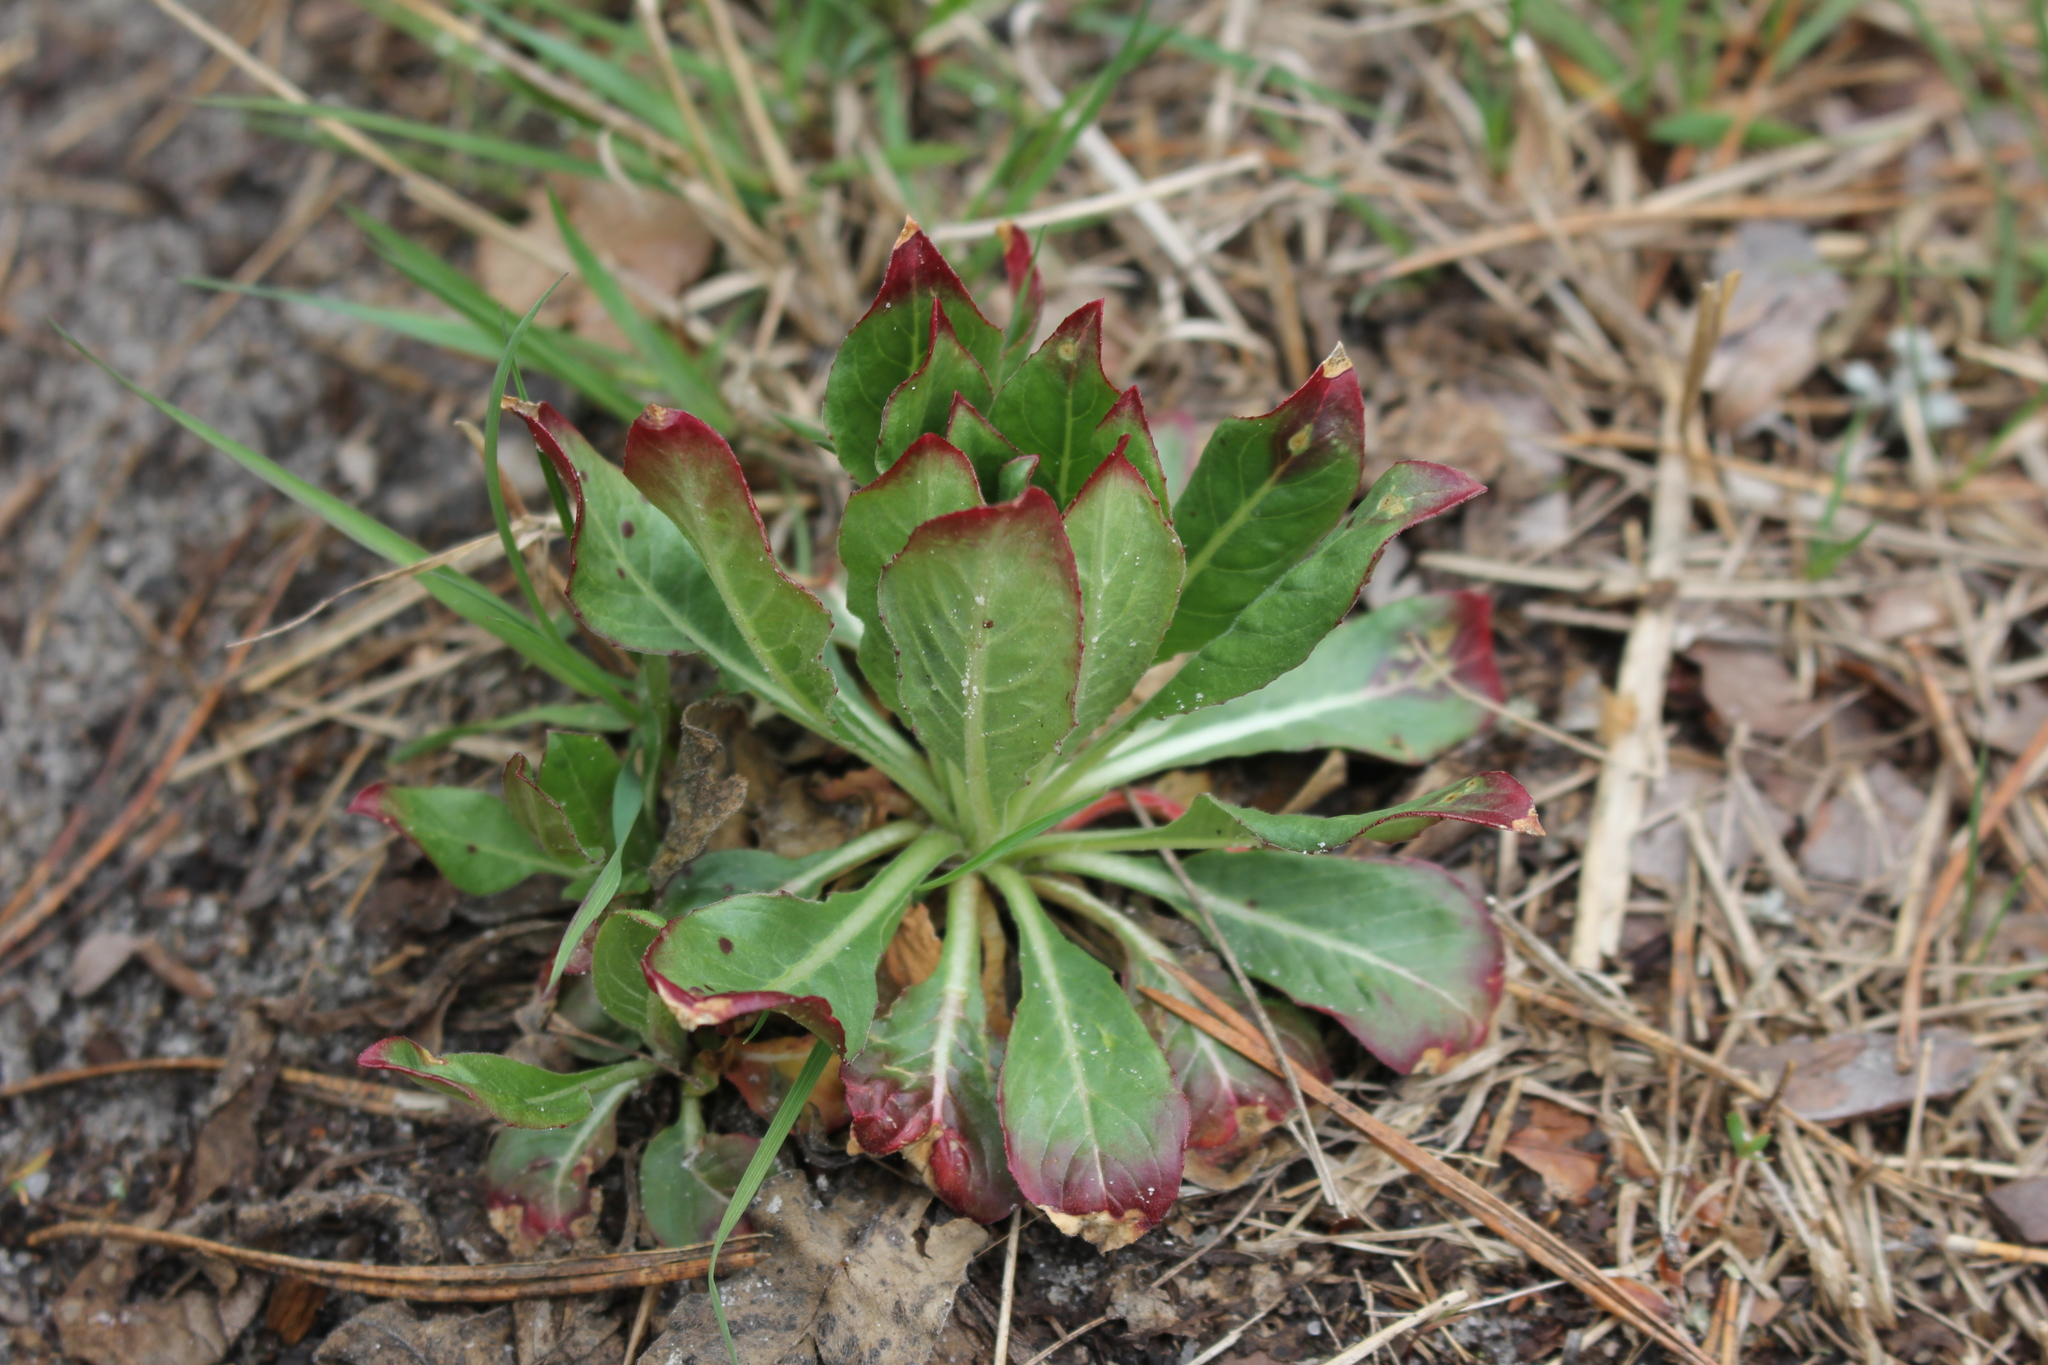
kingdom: Plantae
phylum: Tracheophyta
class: Magnoliopsida
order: Myrtales
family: Onagraceae
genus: Oenothera
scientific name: Oenothera
